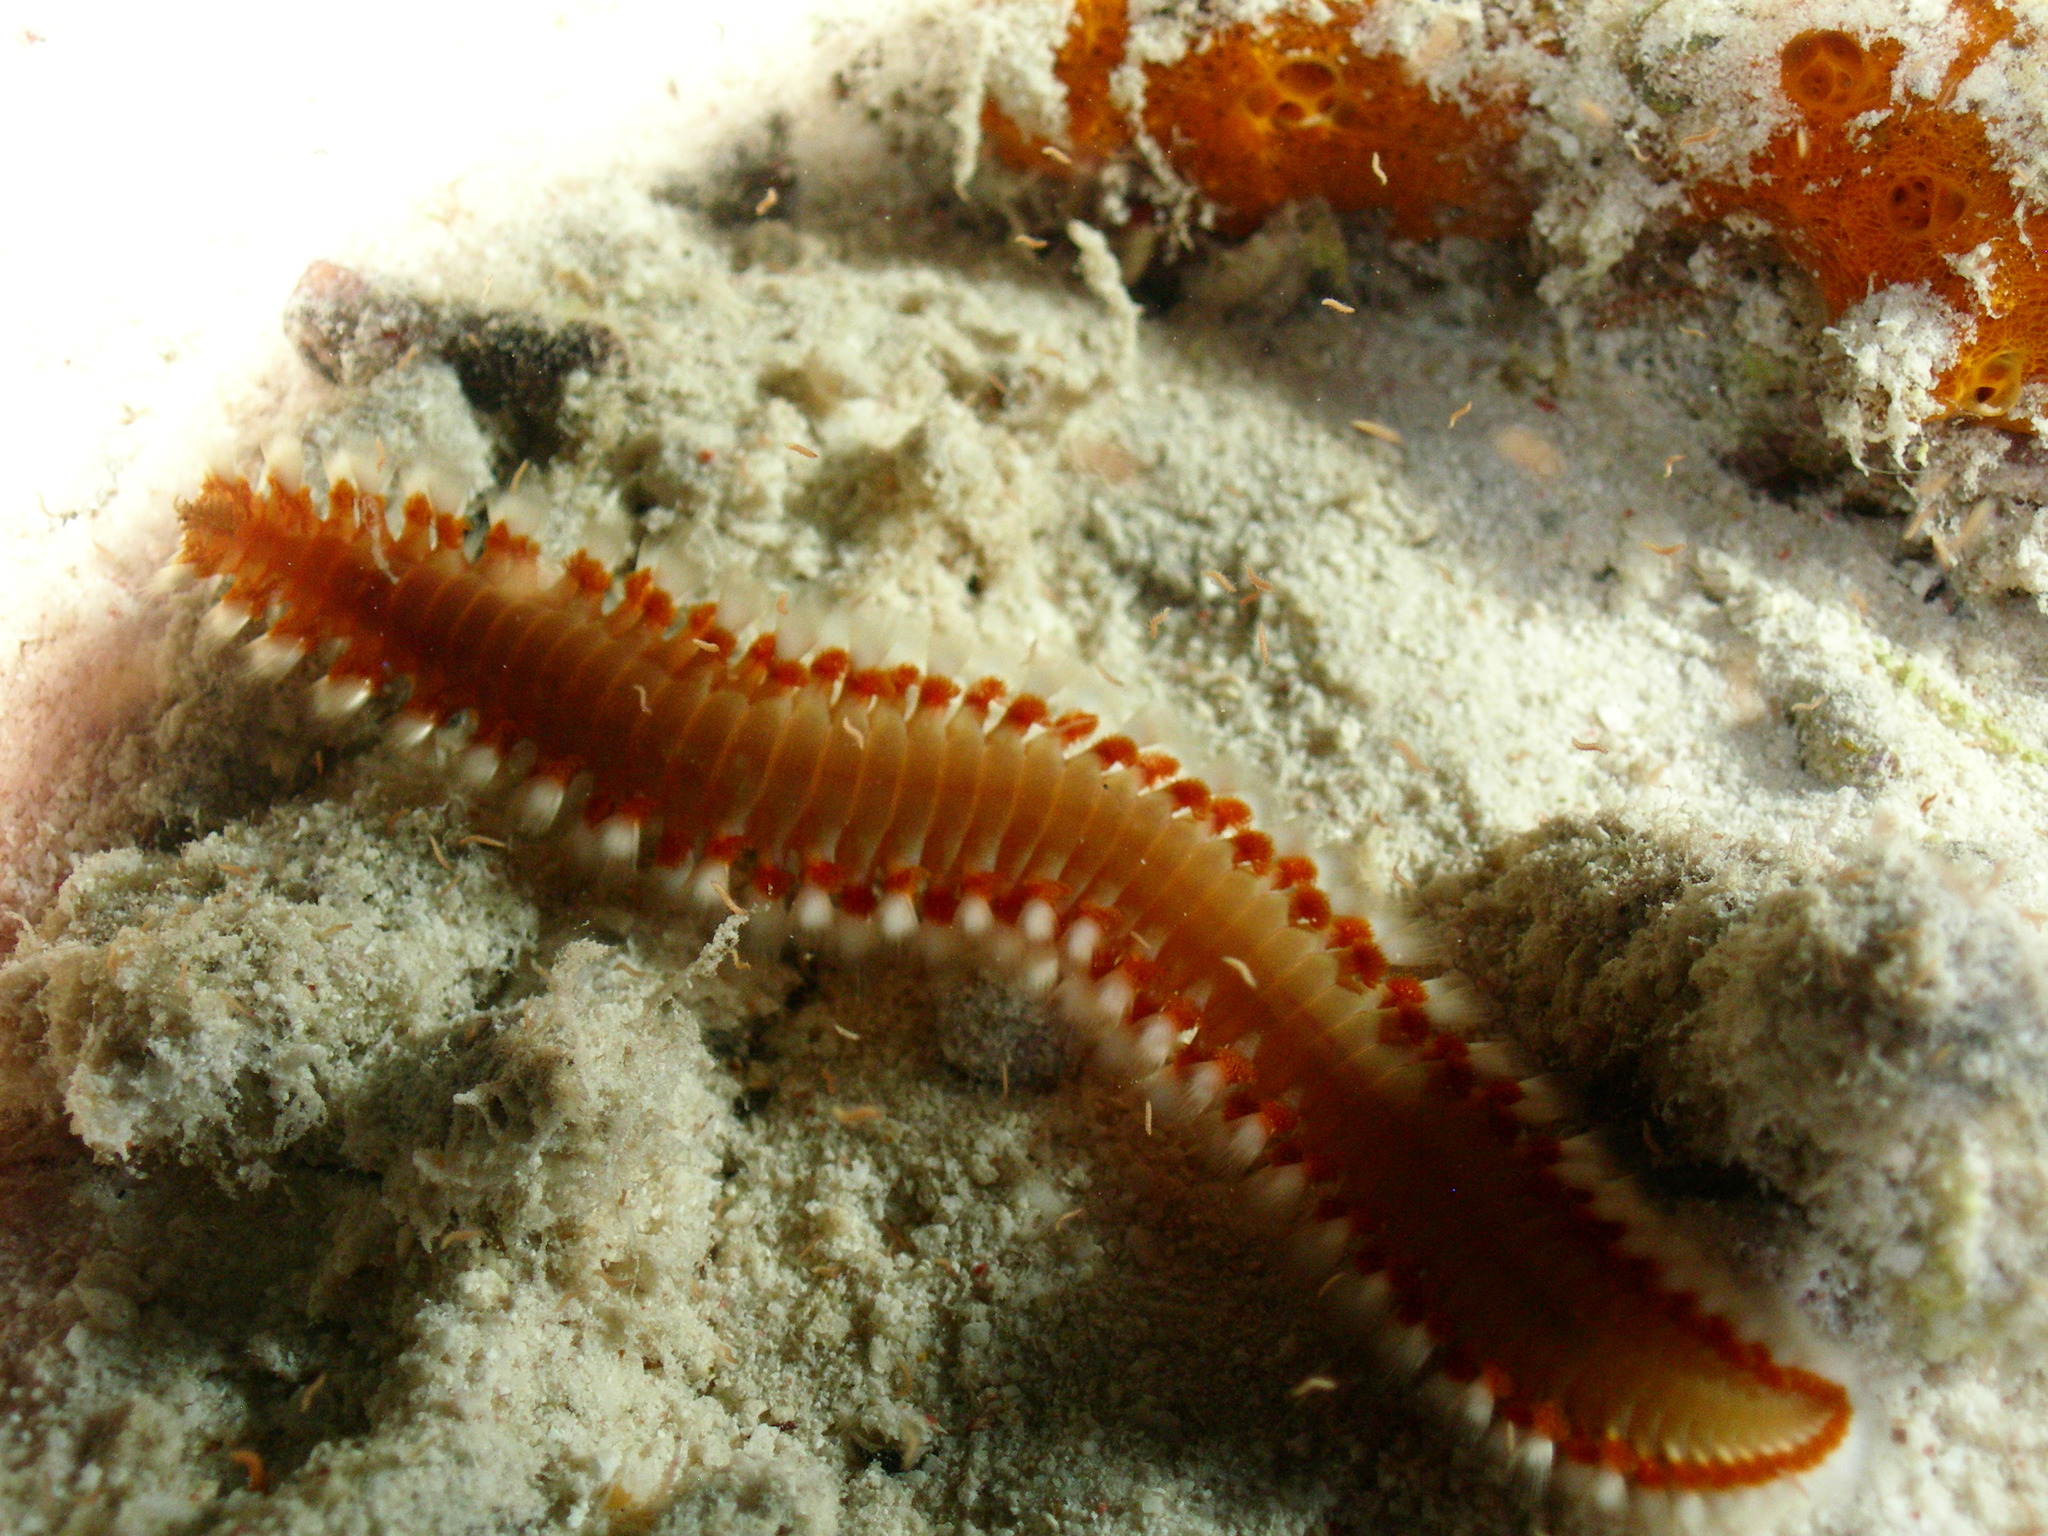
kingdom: Animalia
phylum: Annelida
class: Polychaeta
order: Amphinomida
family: Amphinomidae
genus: Hermodice
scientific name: Hermodice carunculata
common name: Bearded fireworm
